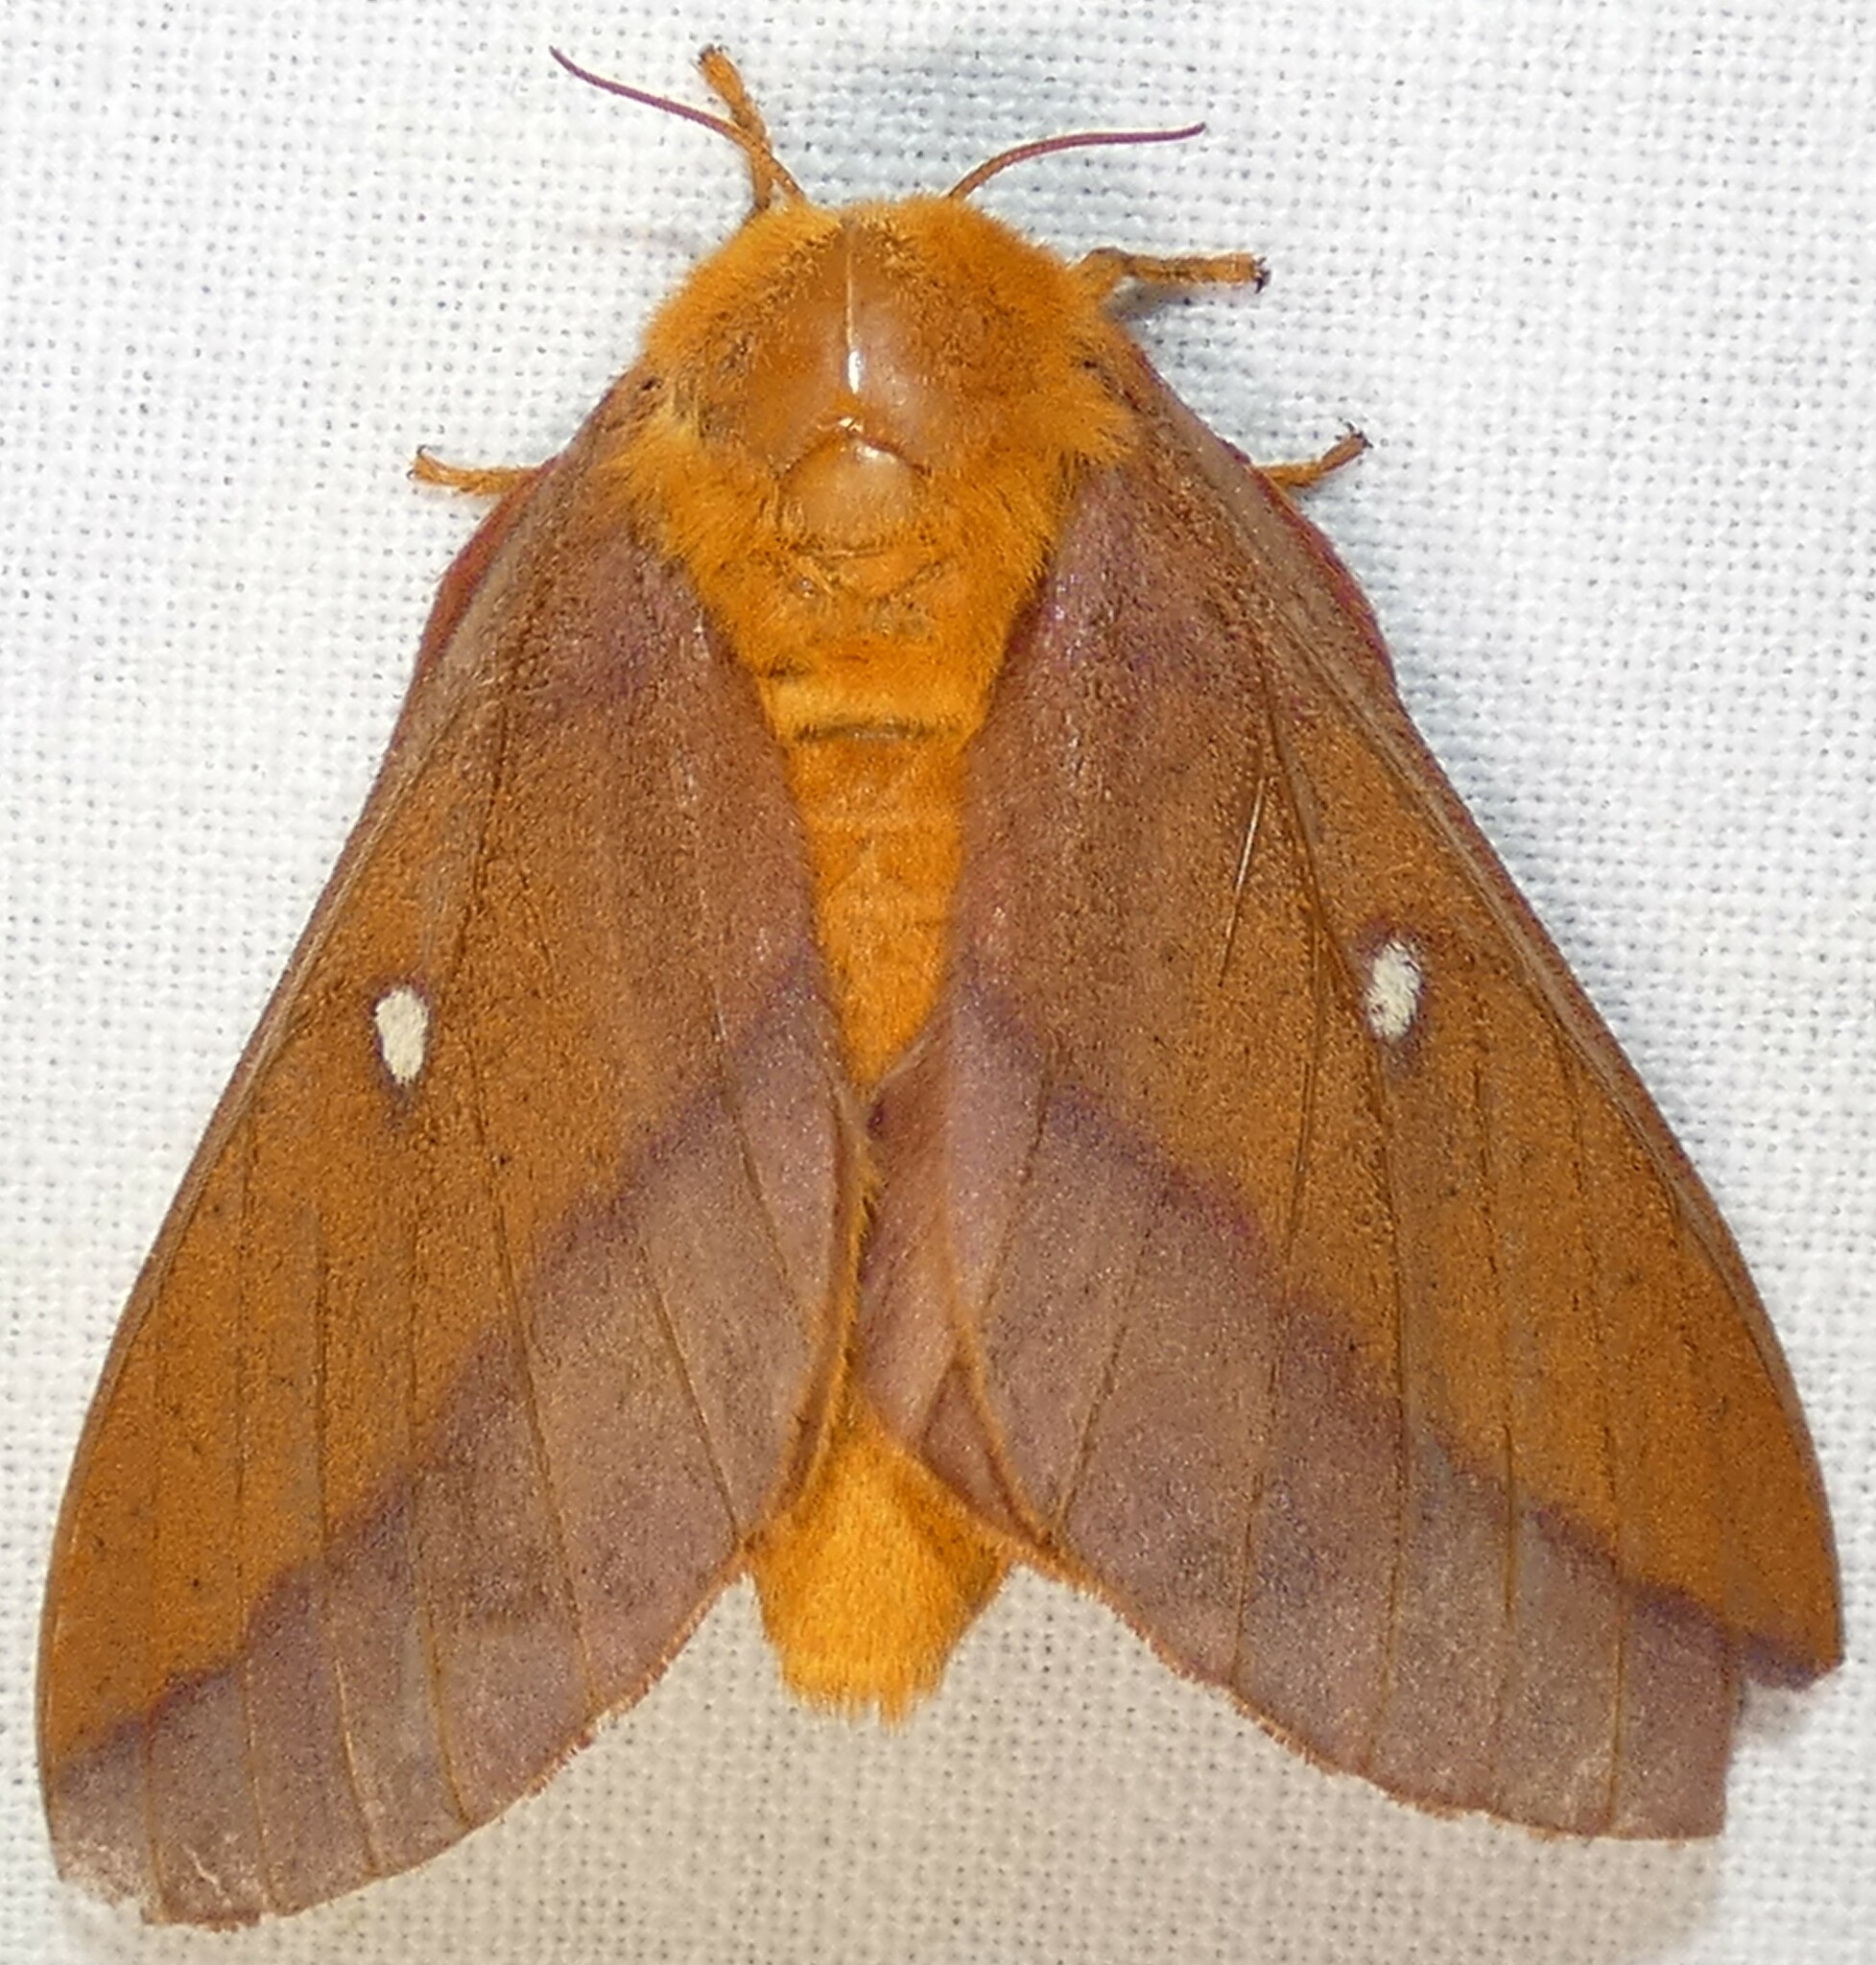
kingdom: Animalia
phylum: Arthropoda
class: Insecta
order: Lepidoptera
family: Saturniidae
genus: Anisota
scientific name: Anisota virginiensis
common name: Pink striped oakworm moth
